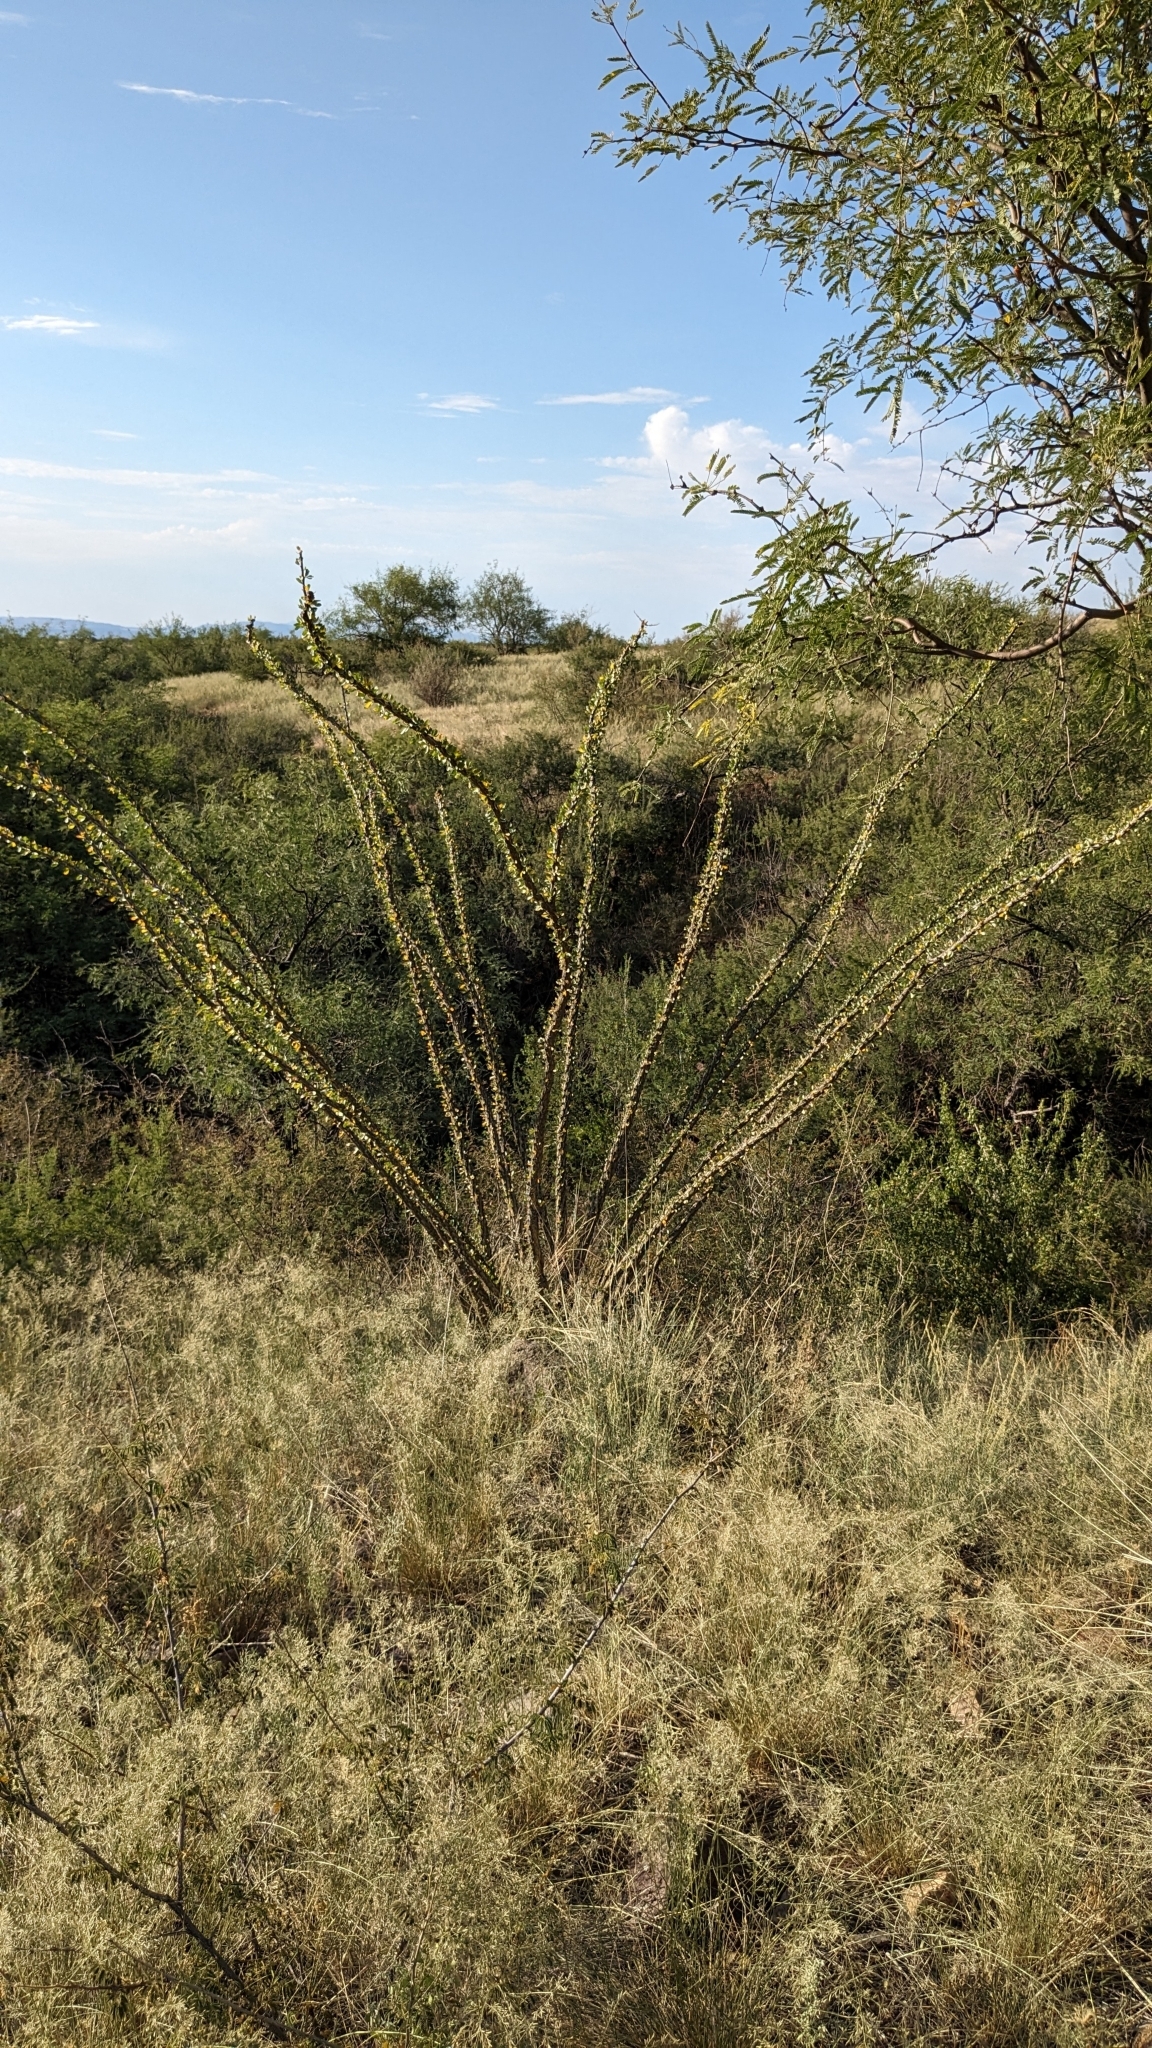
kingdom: Plantae
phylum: Tracheophyta
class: Magnoliopsida
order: Ericales
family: Fouquieriaceae
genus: Fouquieria
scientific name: Fouquieria splendens
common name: Vine-cactus
